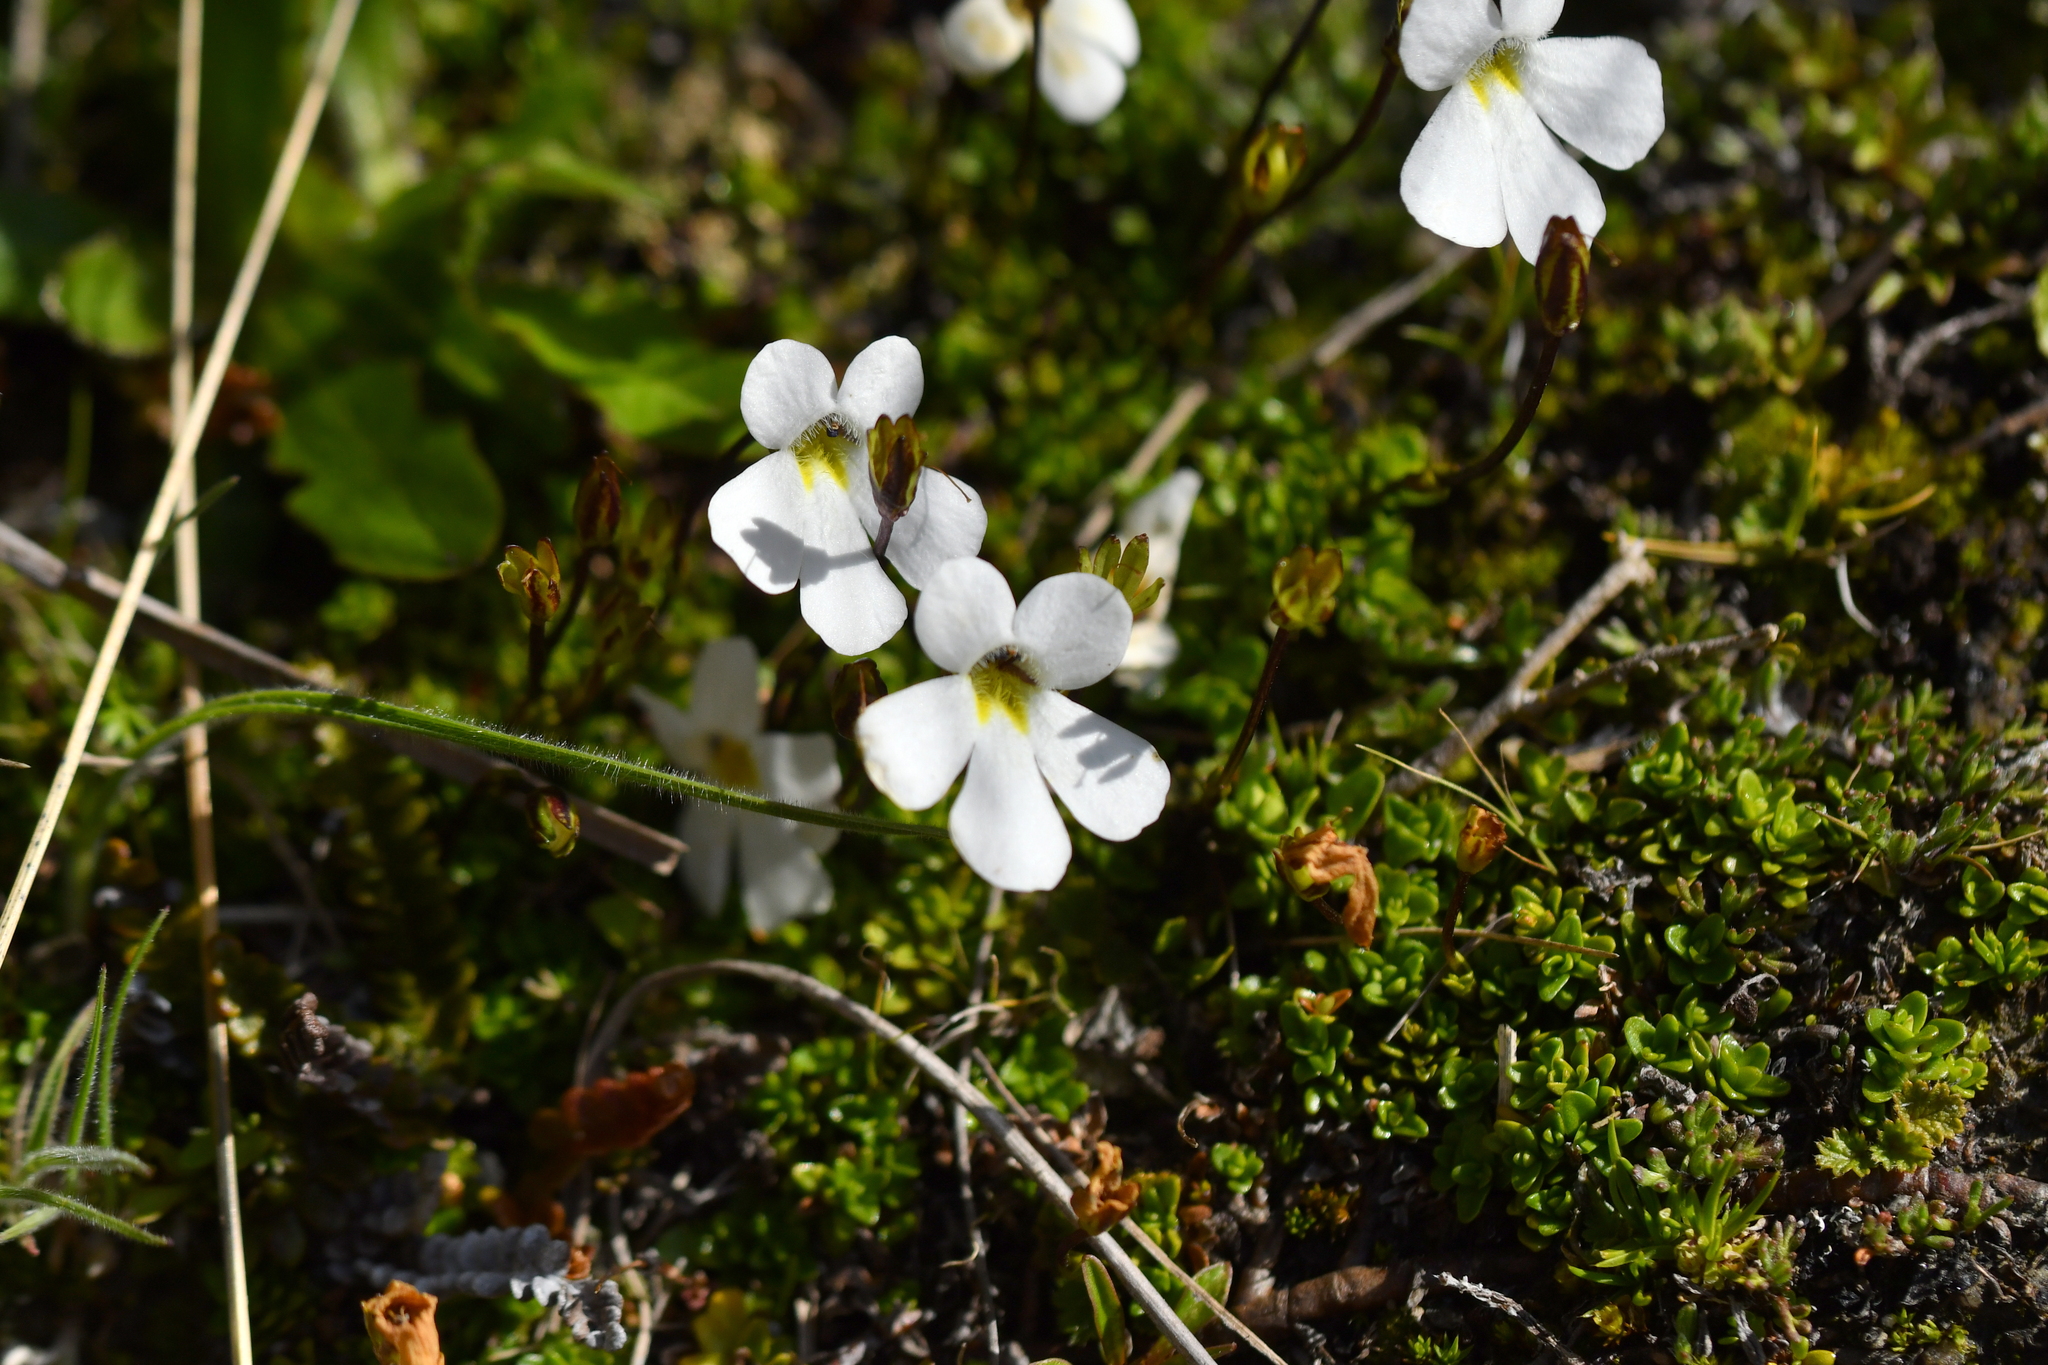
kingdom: Plantae
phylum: Tracheophyta
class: Magnoliopsida
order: Lamiales
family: Plantaginaceae
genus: Ourisia
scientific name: Ourisia caespitosa
